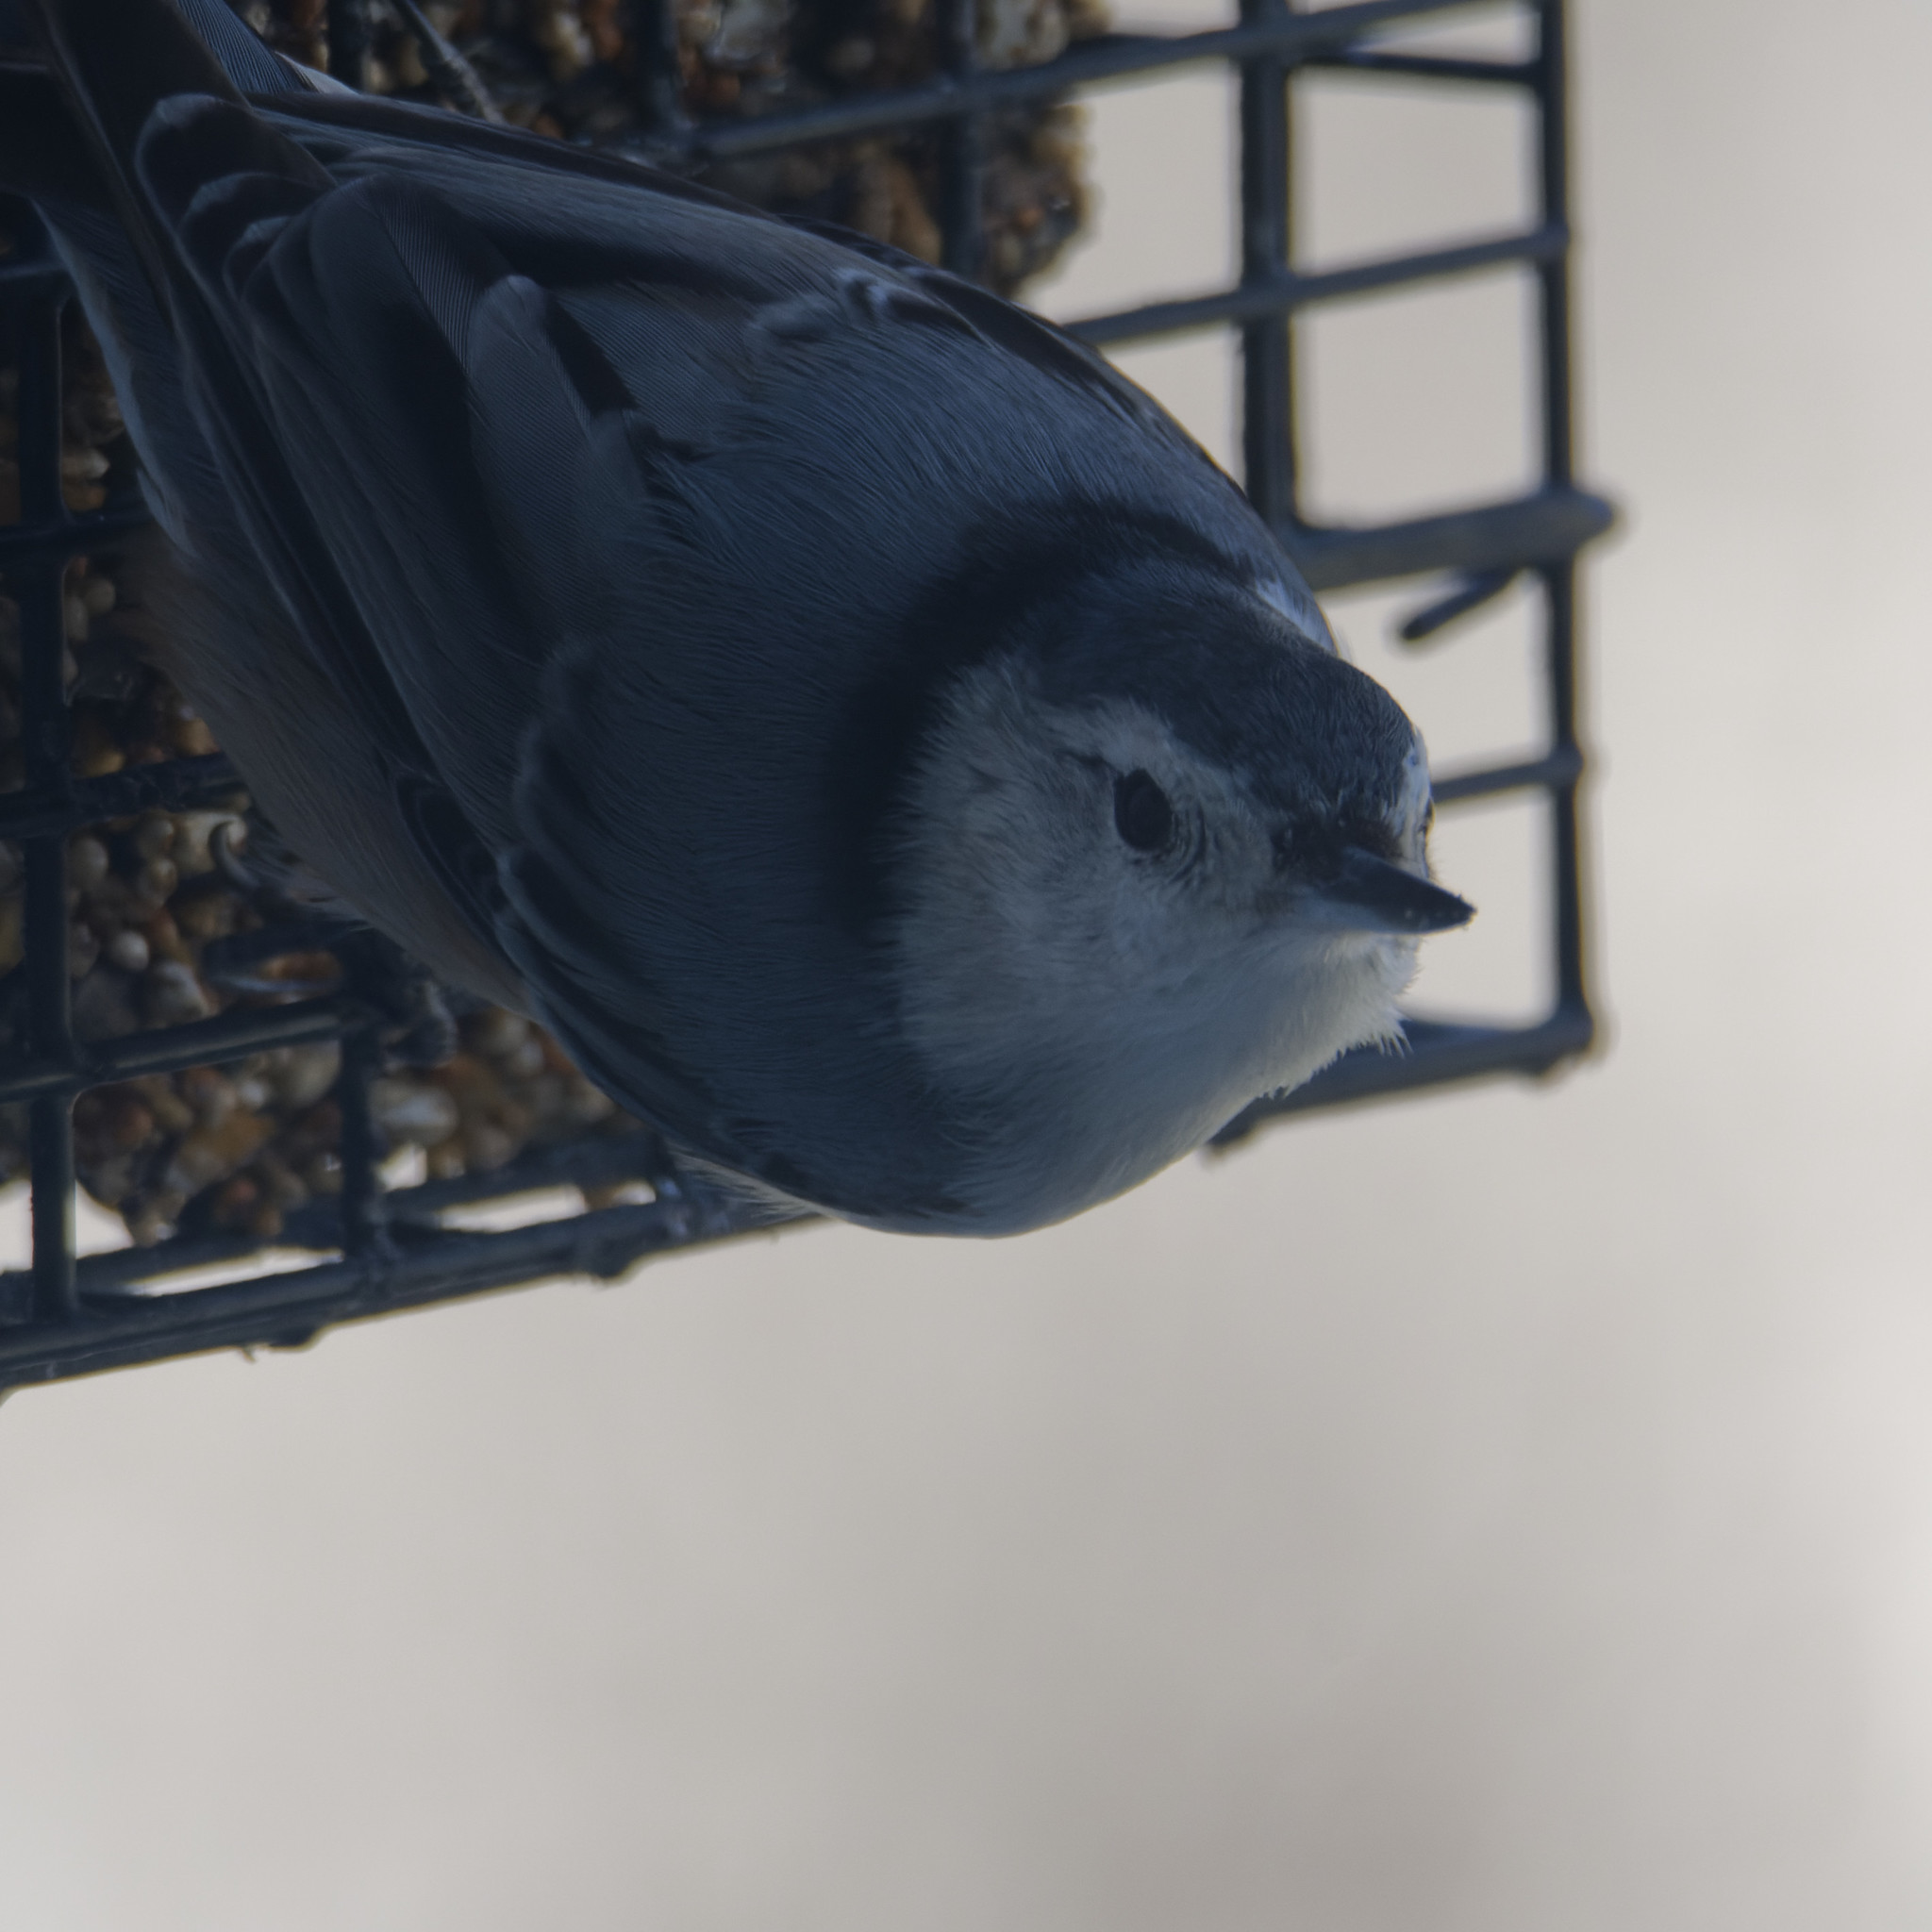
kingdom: Animalia
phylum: Chordata
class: Aves
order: Passeriformes
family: Sittidae
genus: Sitta
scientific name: Sitta carolinensis
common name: White-breasted nuthatch
